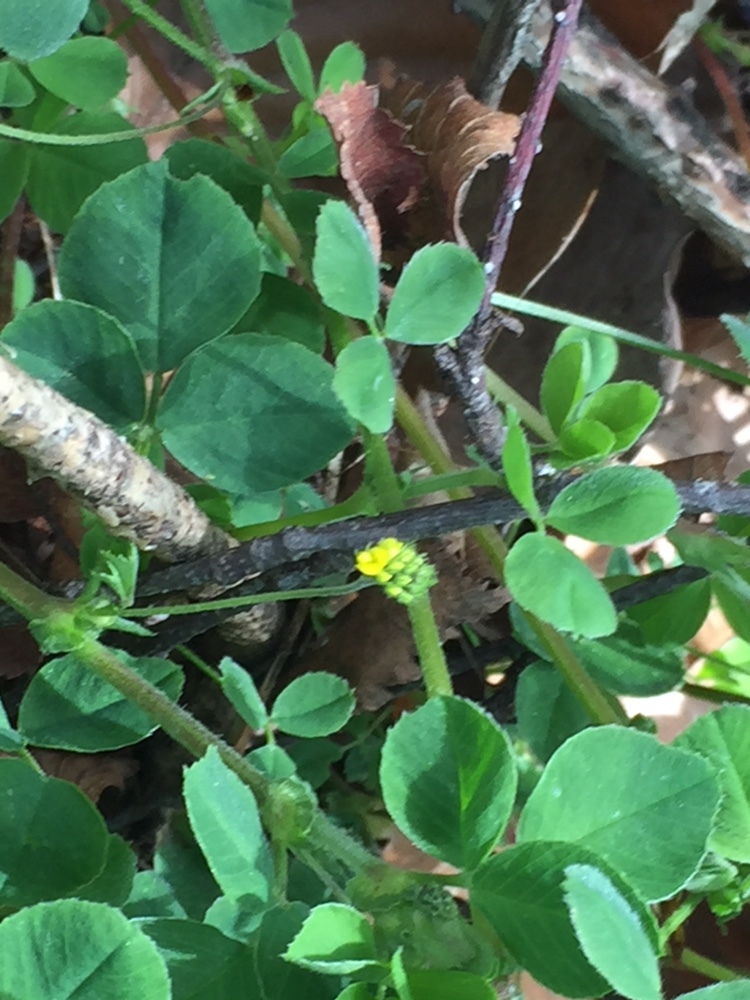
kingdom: Plantae
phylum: Tracheophyta
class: Magnoliopsida
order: Fabales
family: Fabaceae
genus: Medicago
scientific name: Medicago lupulina
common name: Black medick
